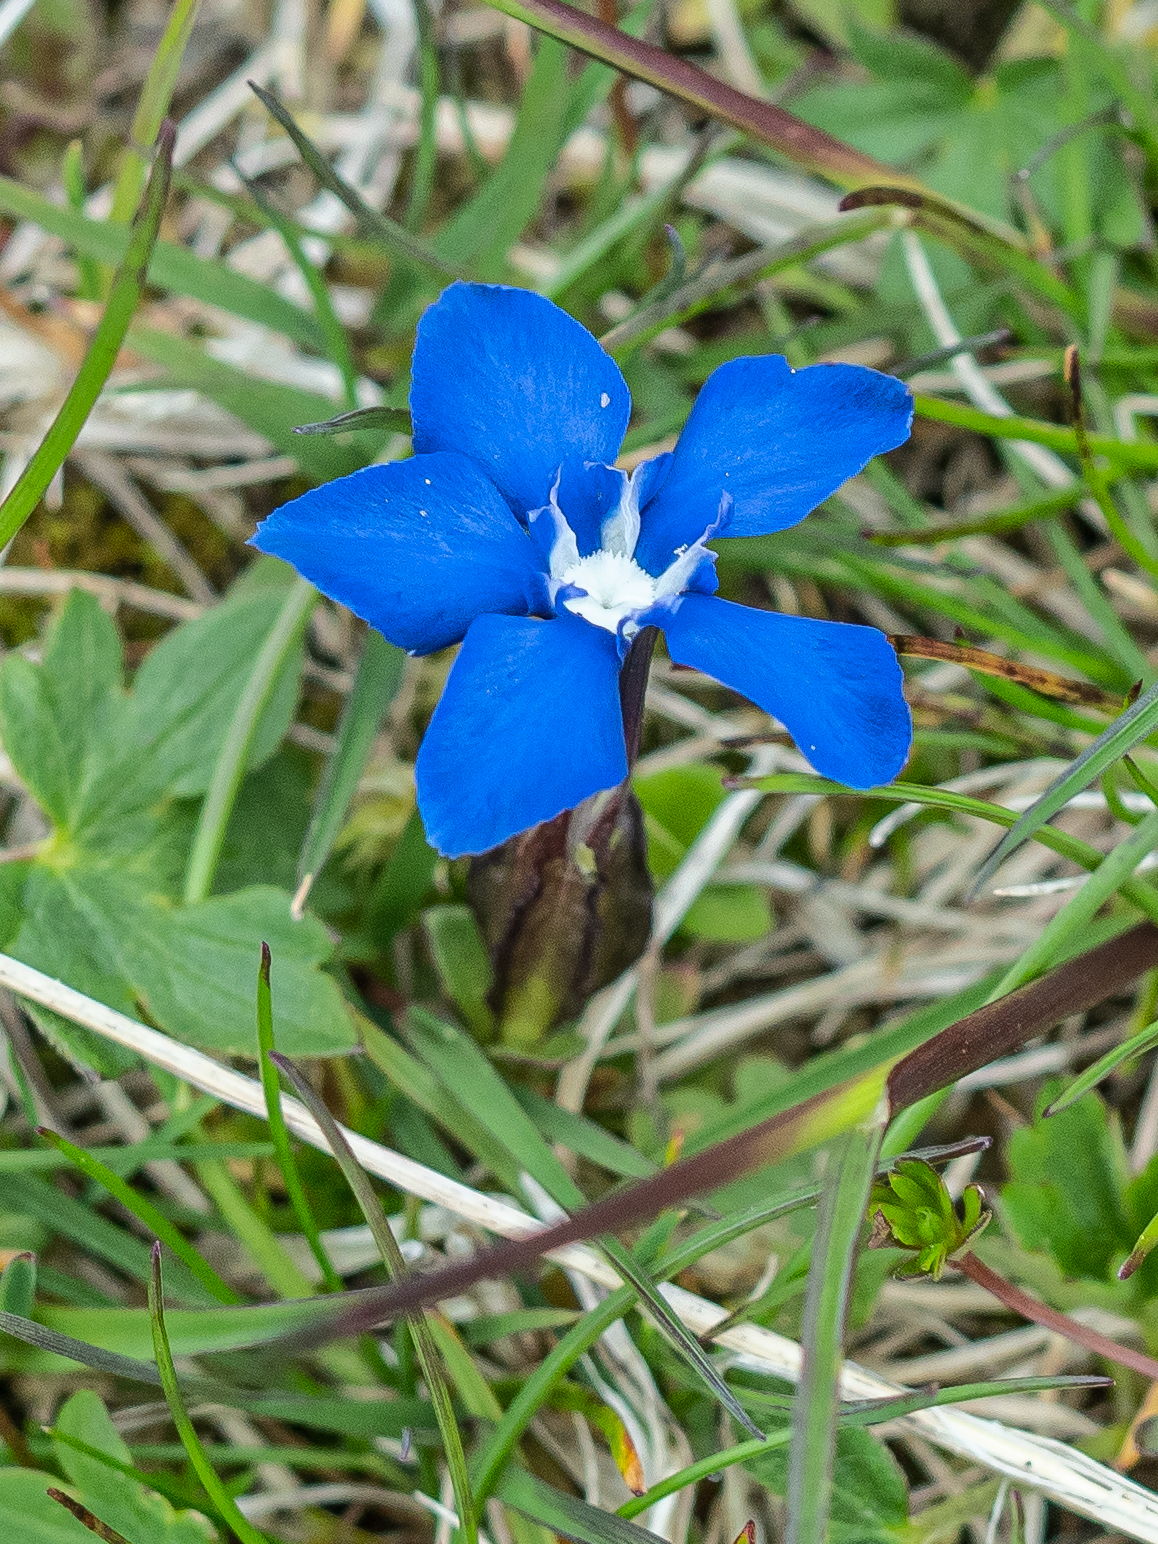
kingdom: Plantae
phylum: Tracheophyta
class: Magnoliopsida
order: Gentianales
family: Gentianaceae
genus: Gentiana
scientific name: Gentiana verna
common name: Spring gentian
